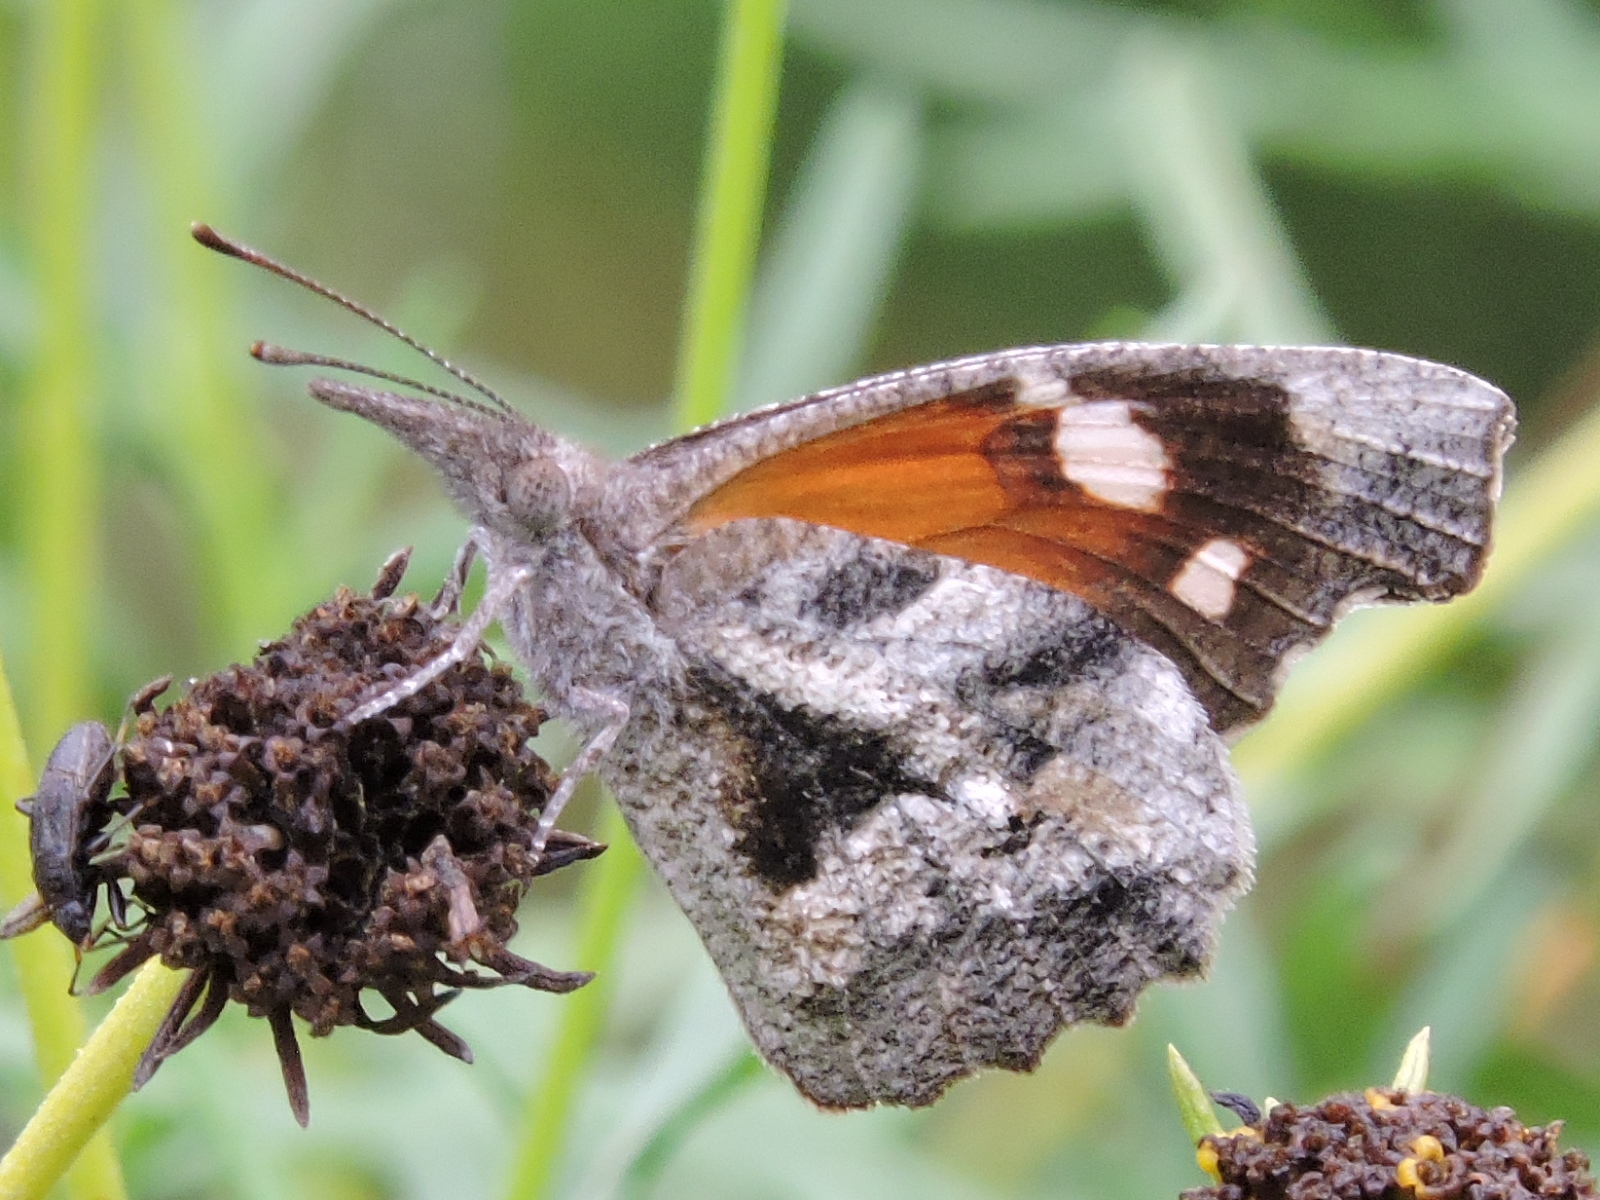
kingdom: Animalia
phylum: Arthropoda
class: Insecta
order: Lepidoptera
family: Nymphalidae
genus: Libytheana
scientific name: Libytheana carinenta
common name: American snout
